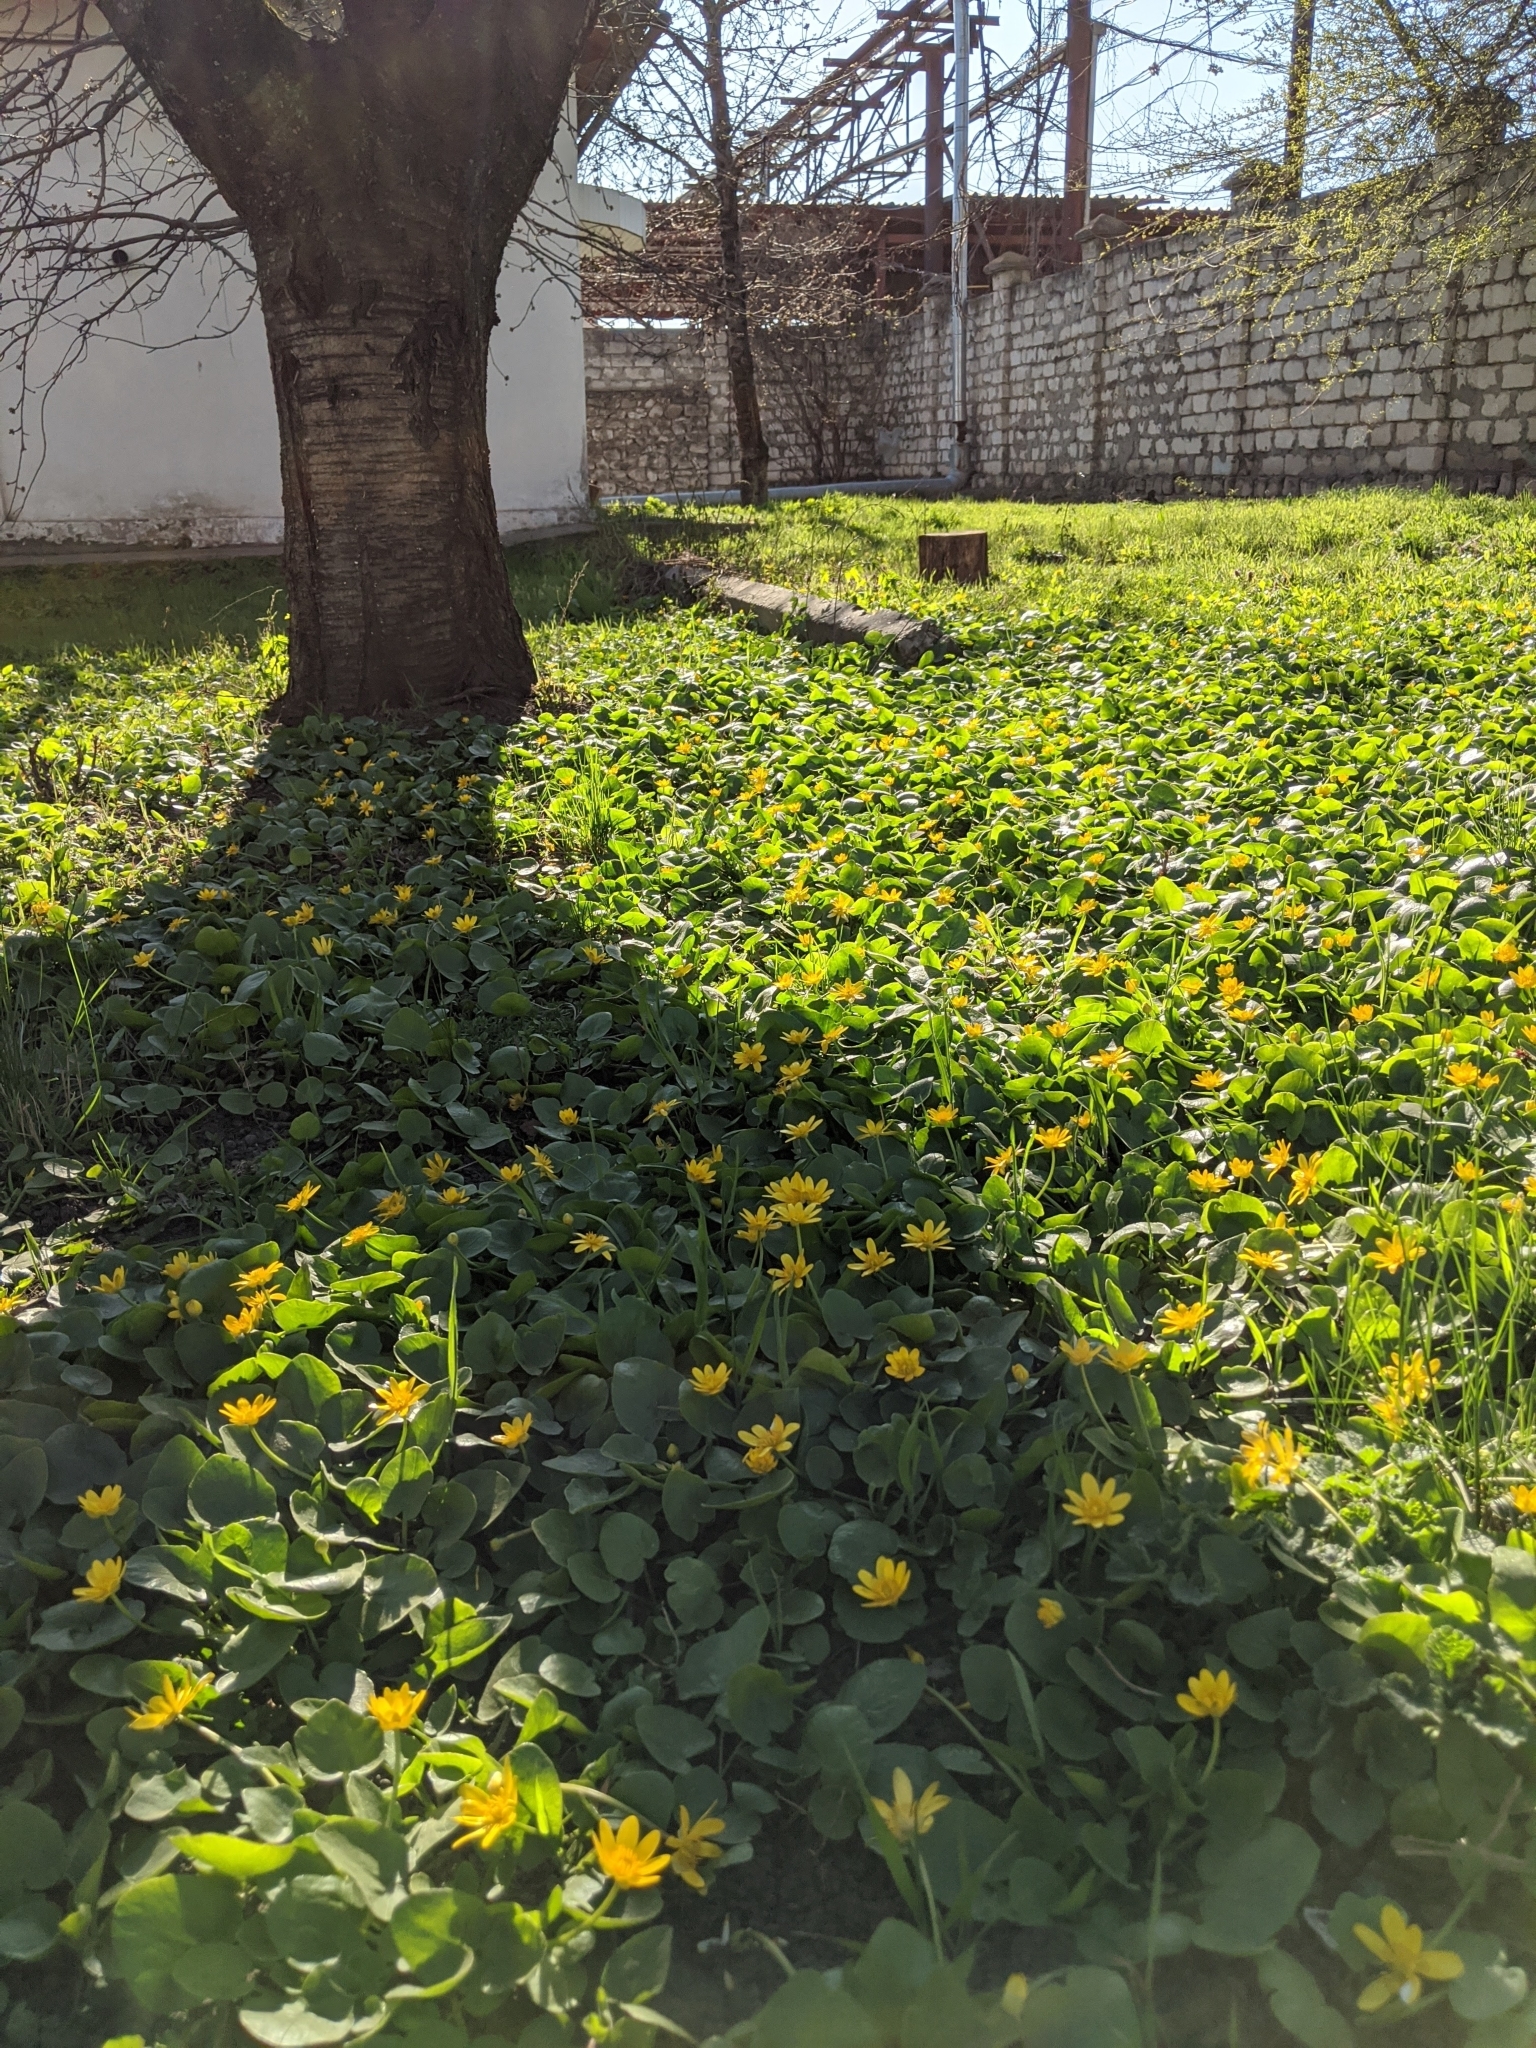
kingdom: Plantae
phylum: Tracheophyta
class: Magnoliopsida
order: Ranunculales
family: Ranunculaceae
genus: Ficaria
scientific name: Ficaria verna
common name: Lesser celandine
